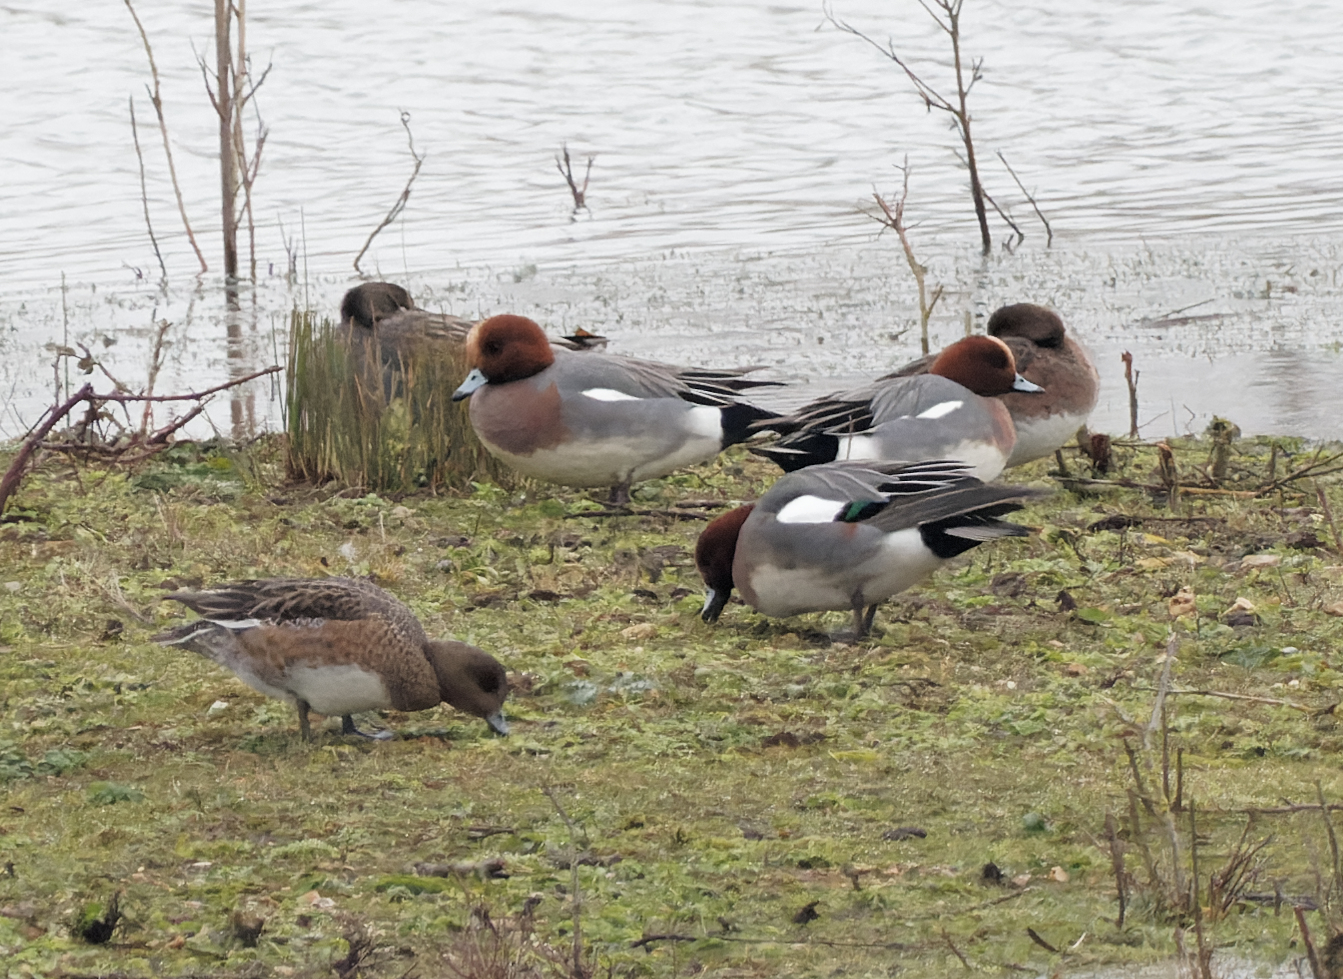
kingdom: Animalia
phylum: Chordata
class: Aves
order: Anseriformes
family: Anatidae
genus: Mareca
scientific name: Mareca penelope
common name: Eurasian wigeon
